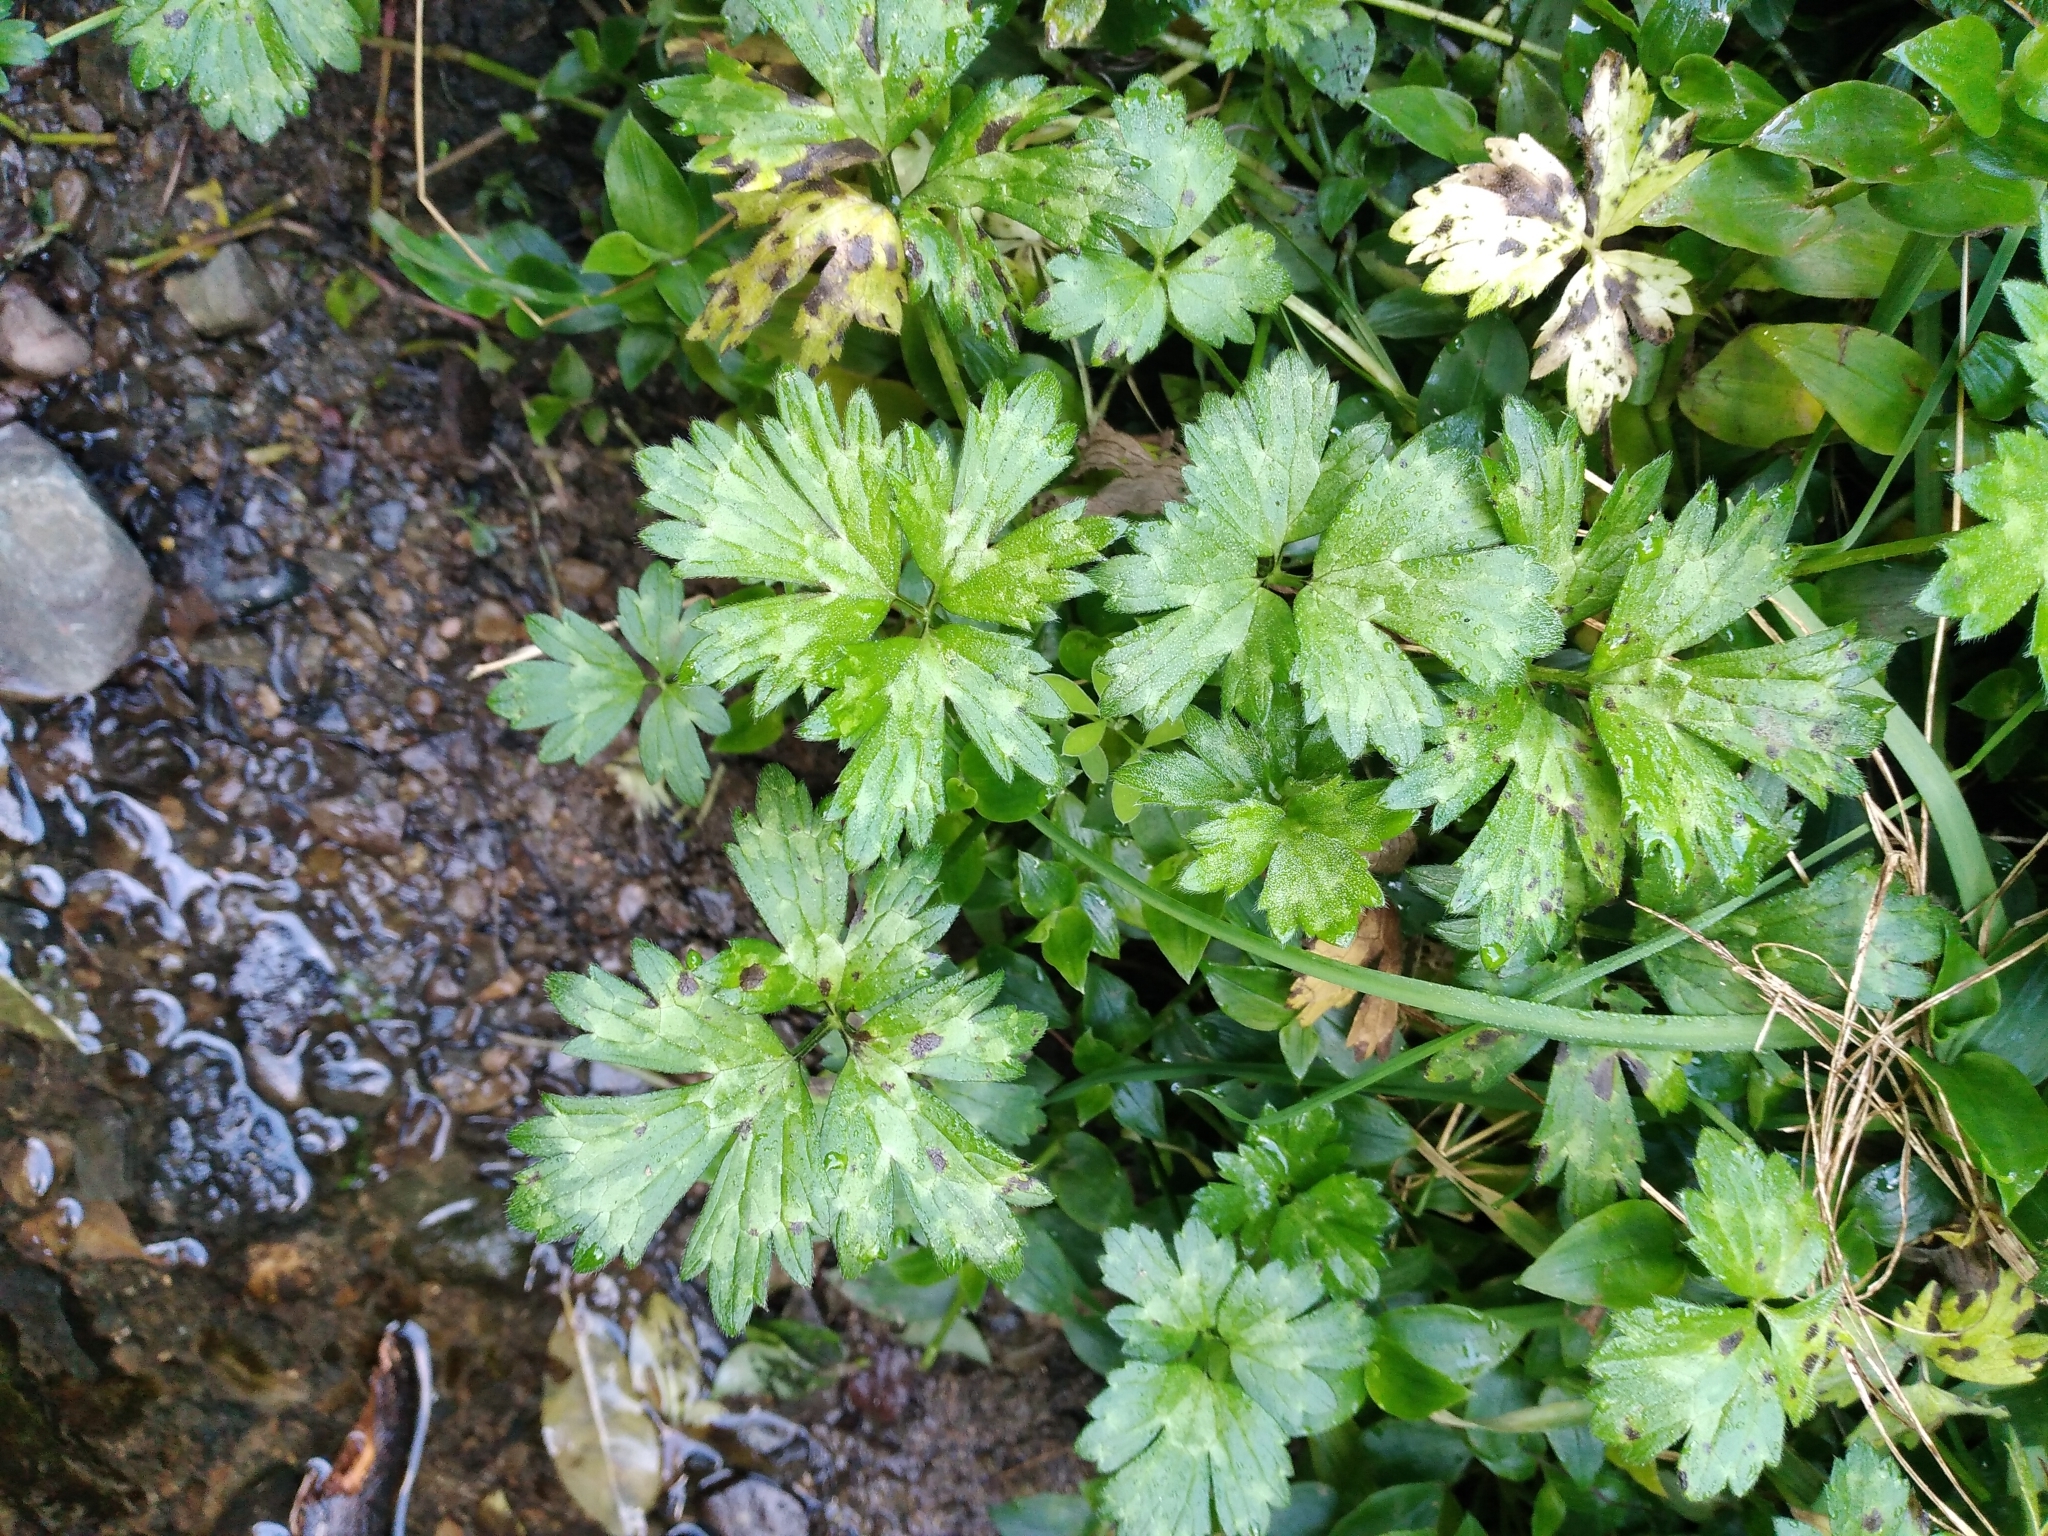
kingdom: Plantae
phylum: Tracheophyta
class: Magnoliopsida
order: Ranunculales
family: Ranunculaceae
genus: Ranunculus
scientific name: Ranunculus repens
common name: Creeping buttercup
